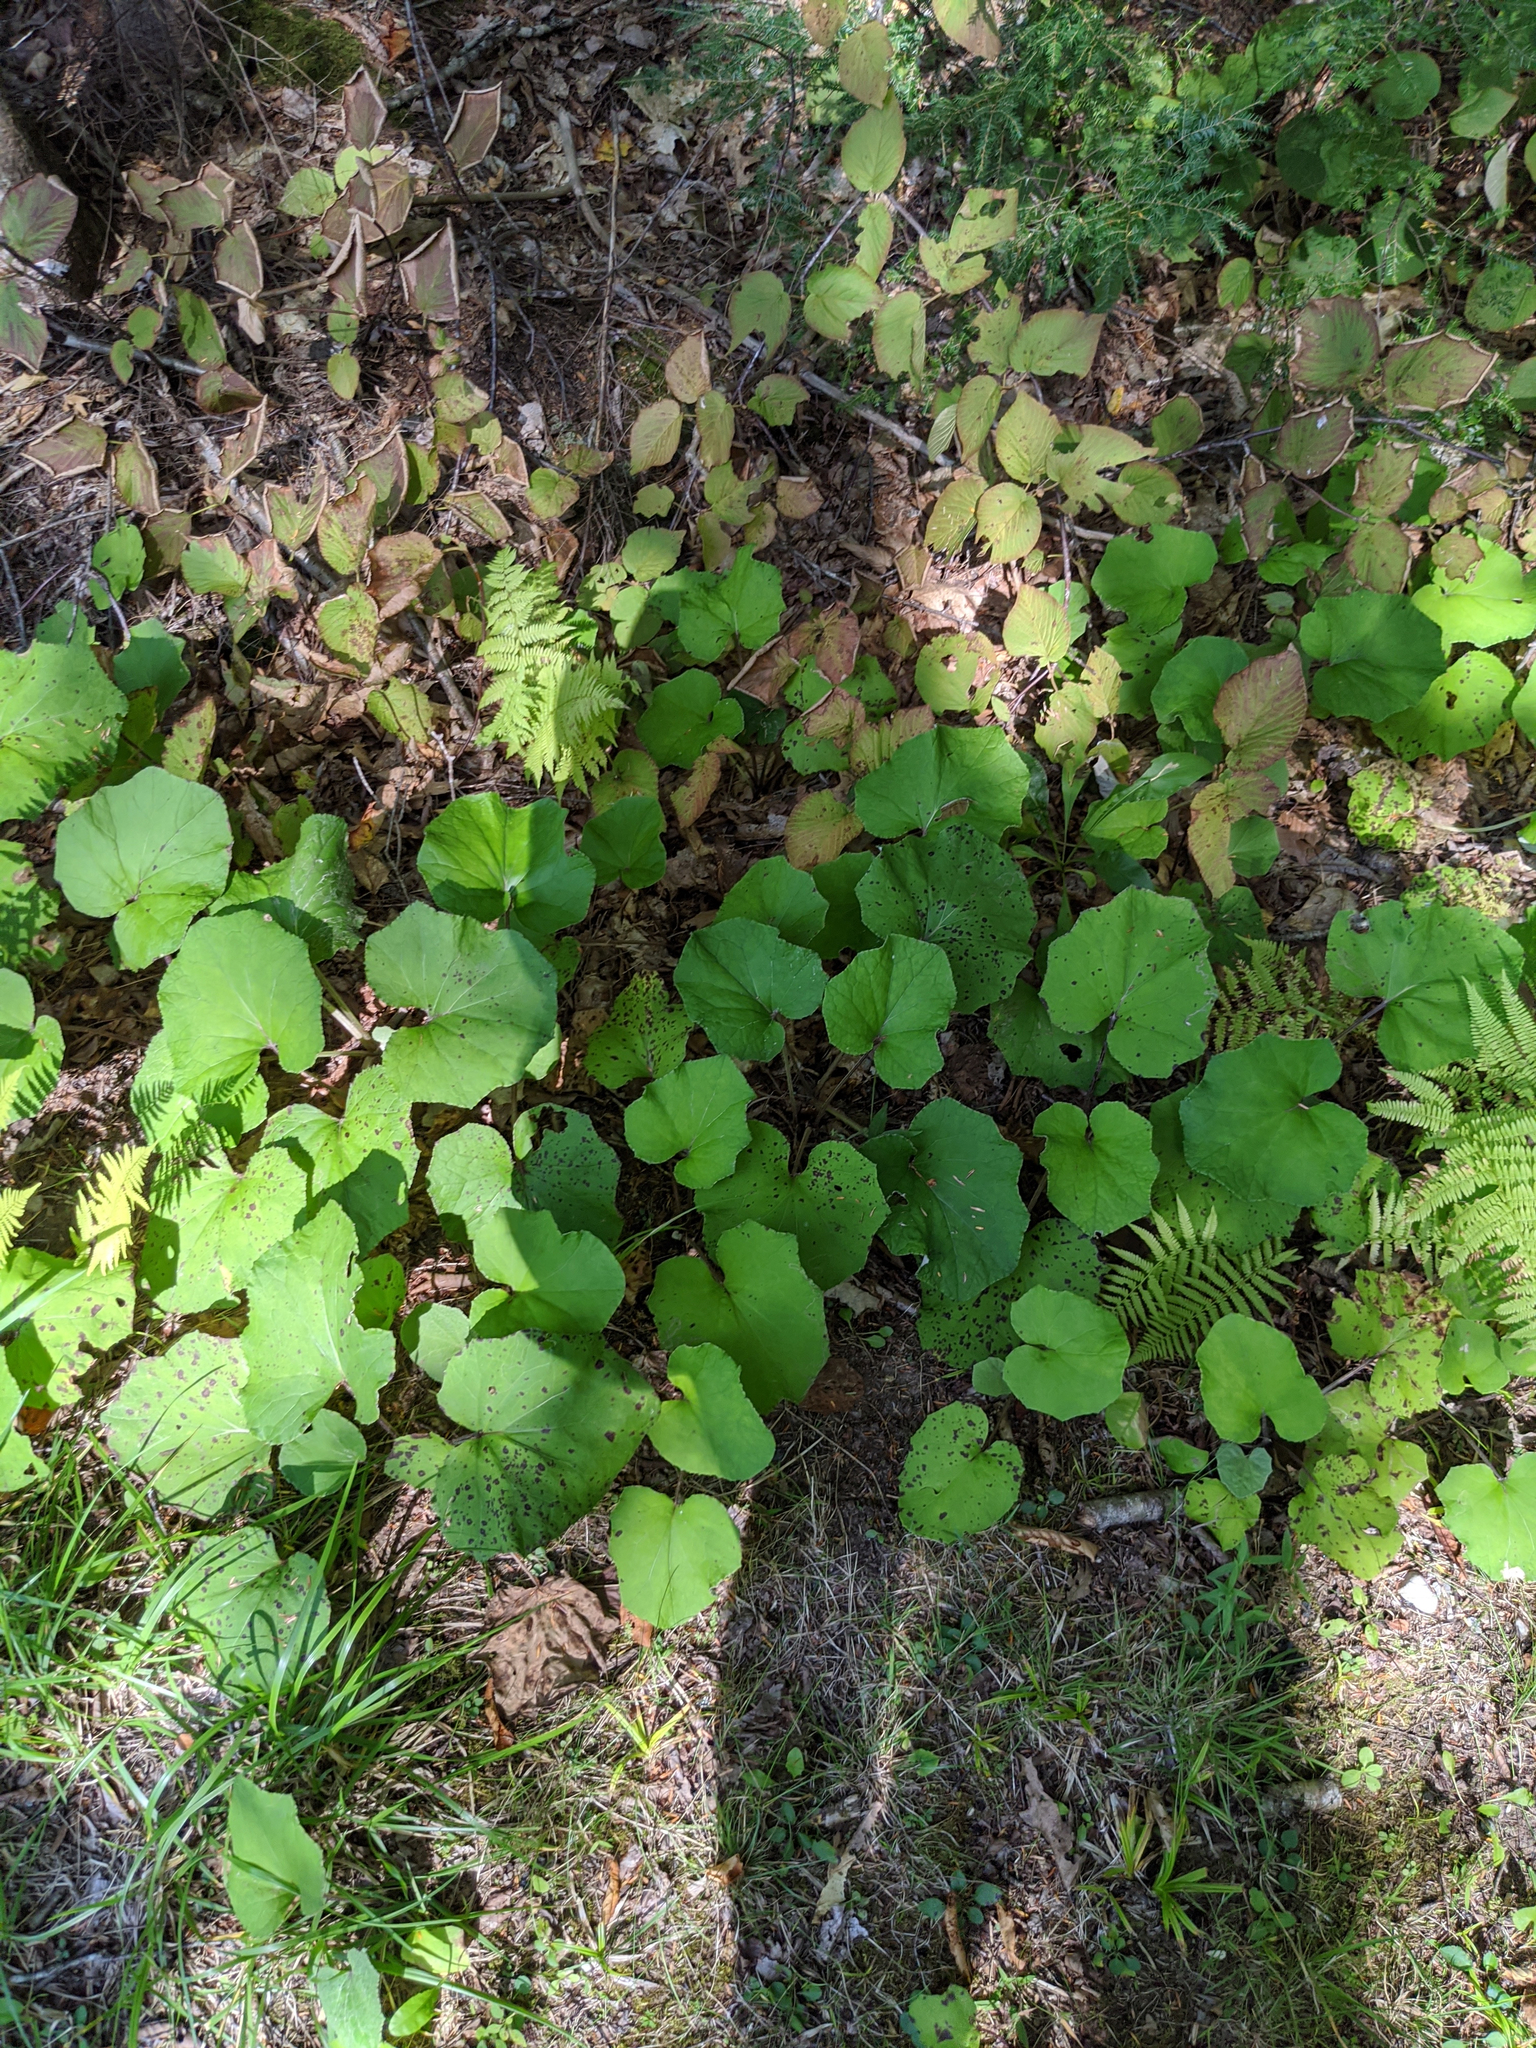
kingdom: Plantae
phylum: Tracheophyta
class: Magnoliopsida
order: Asterales
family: Asteraceae
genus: Tussilago
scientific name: Tussilago farfara
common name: Coltsfoot
